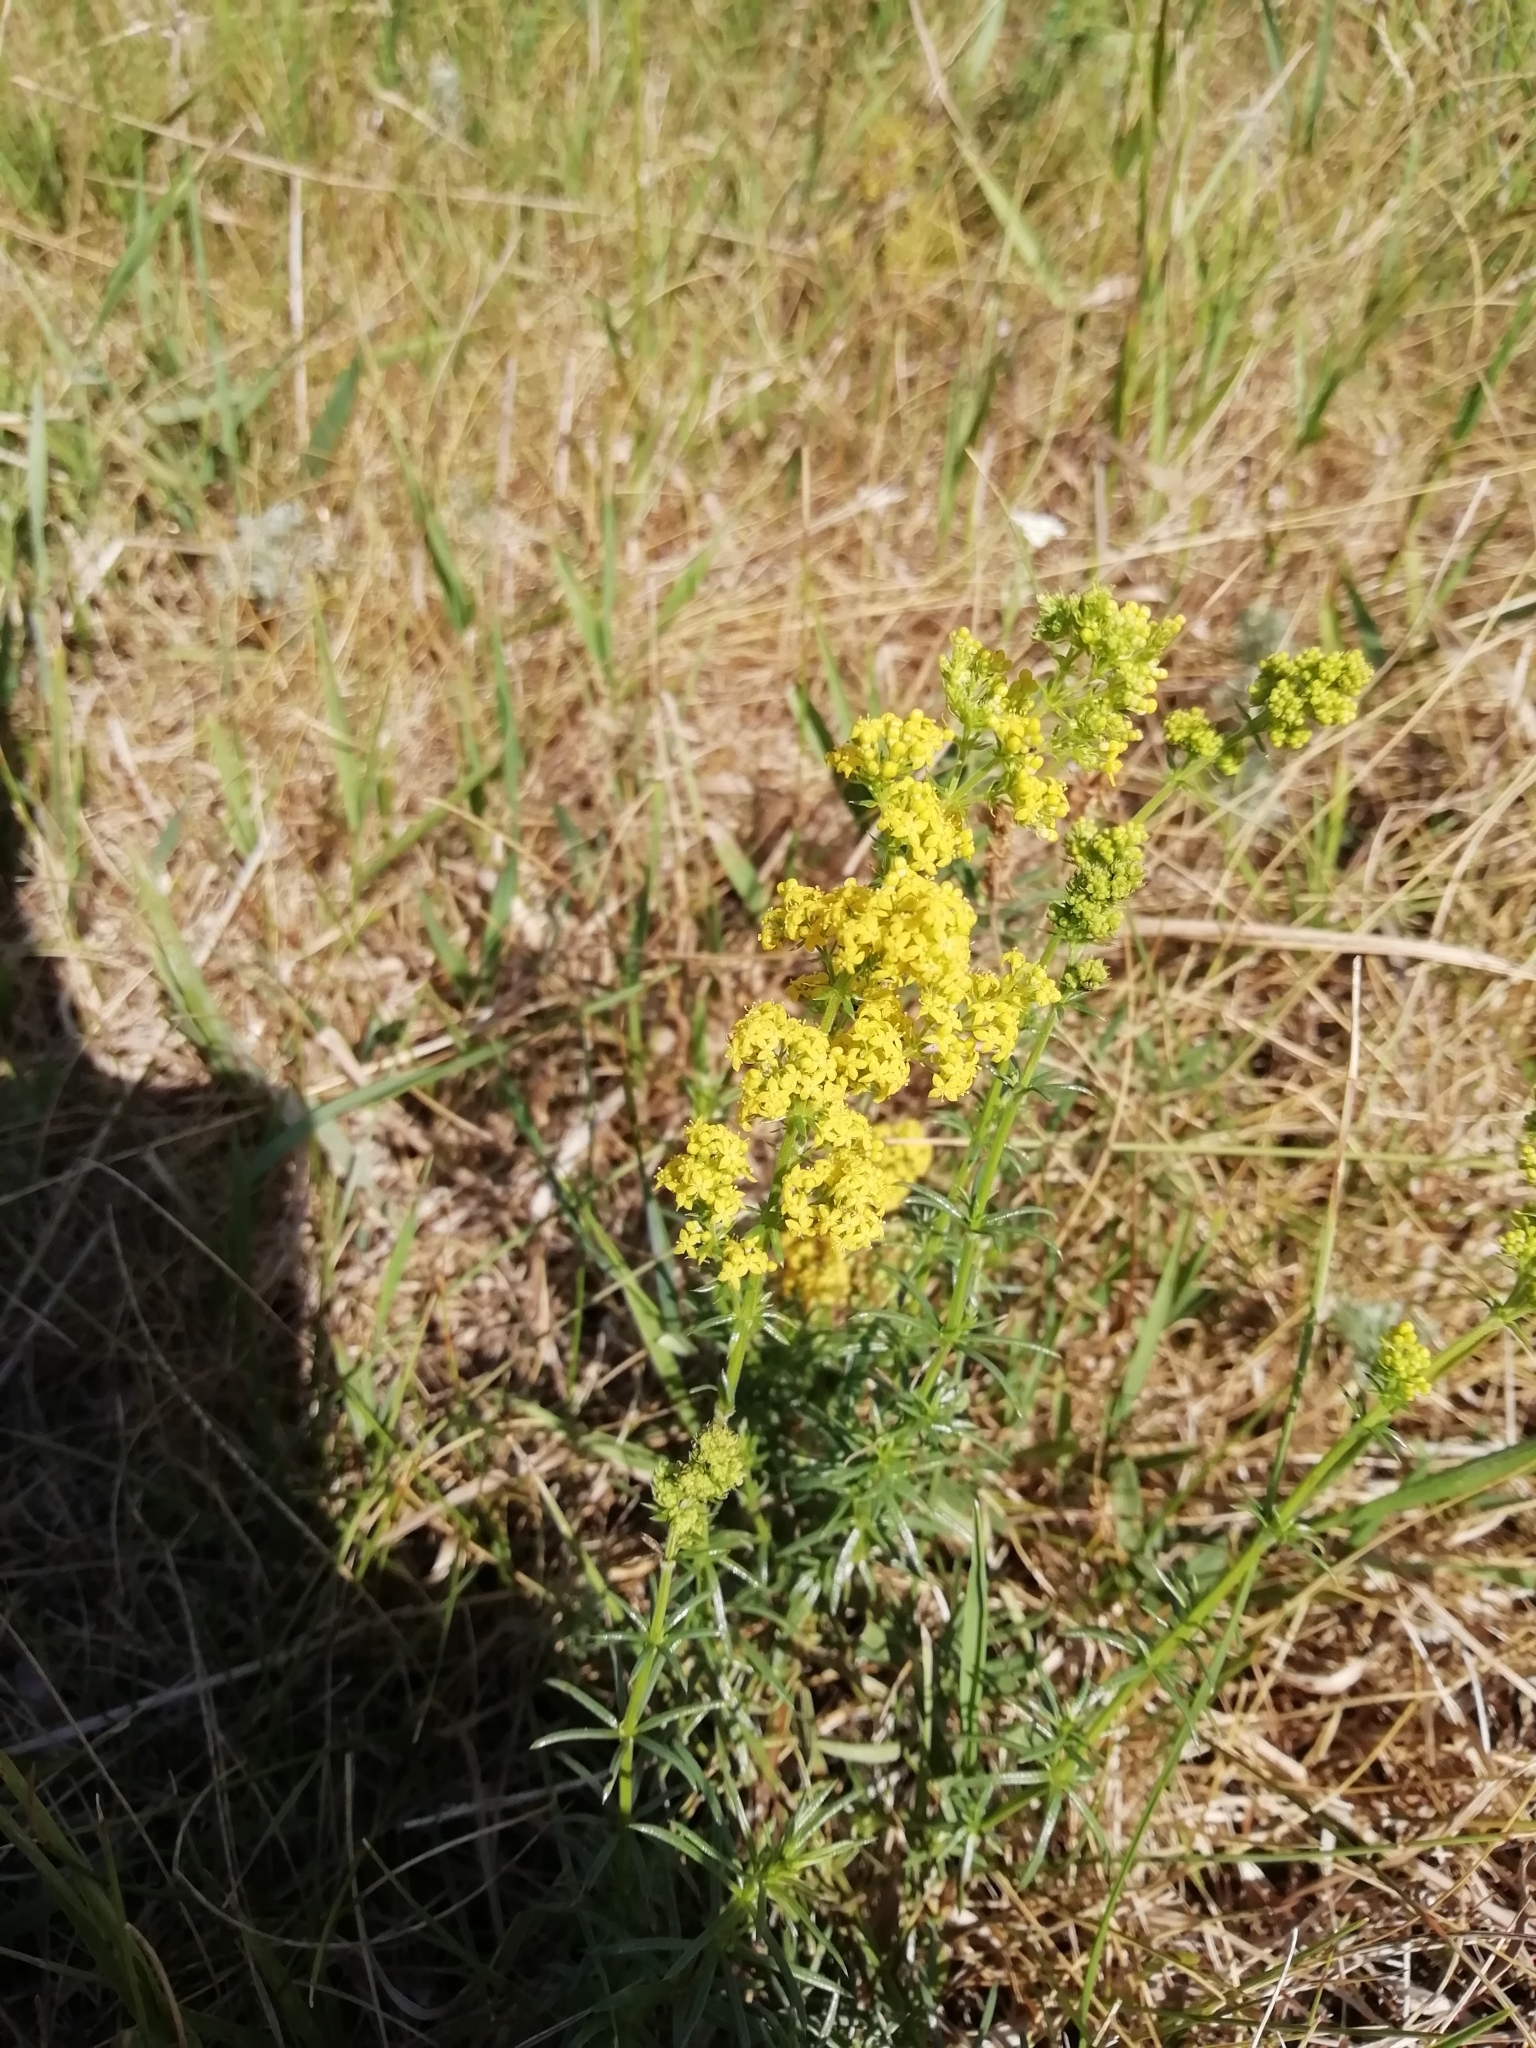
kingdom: Plantae
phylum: Tracheophyta
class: Magnoliopsida
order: Gentianales
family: Rubiaceae
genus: Galium
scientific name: Galium verum
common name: Lady's bedstraw
